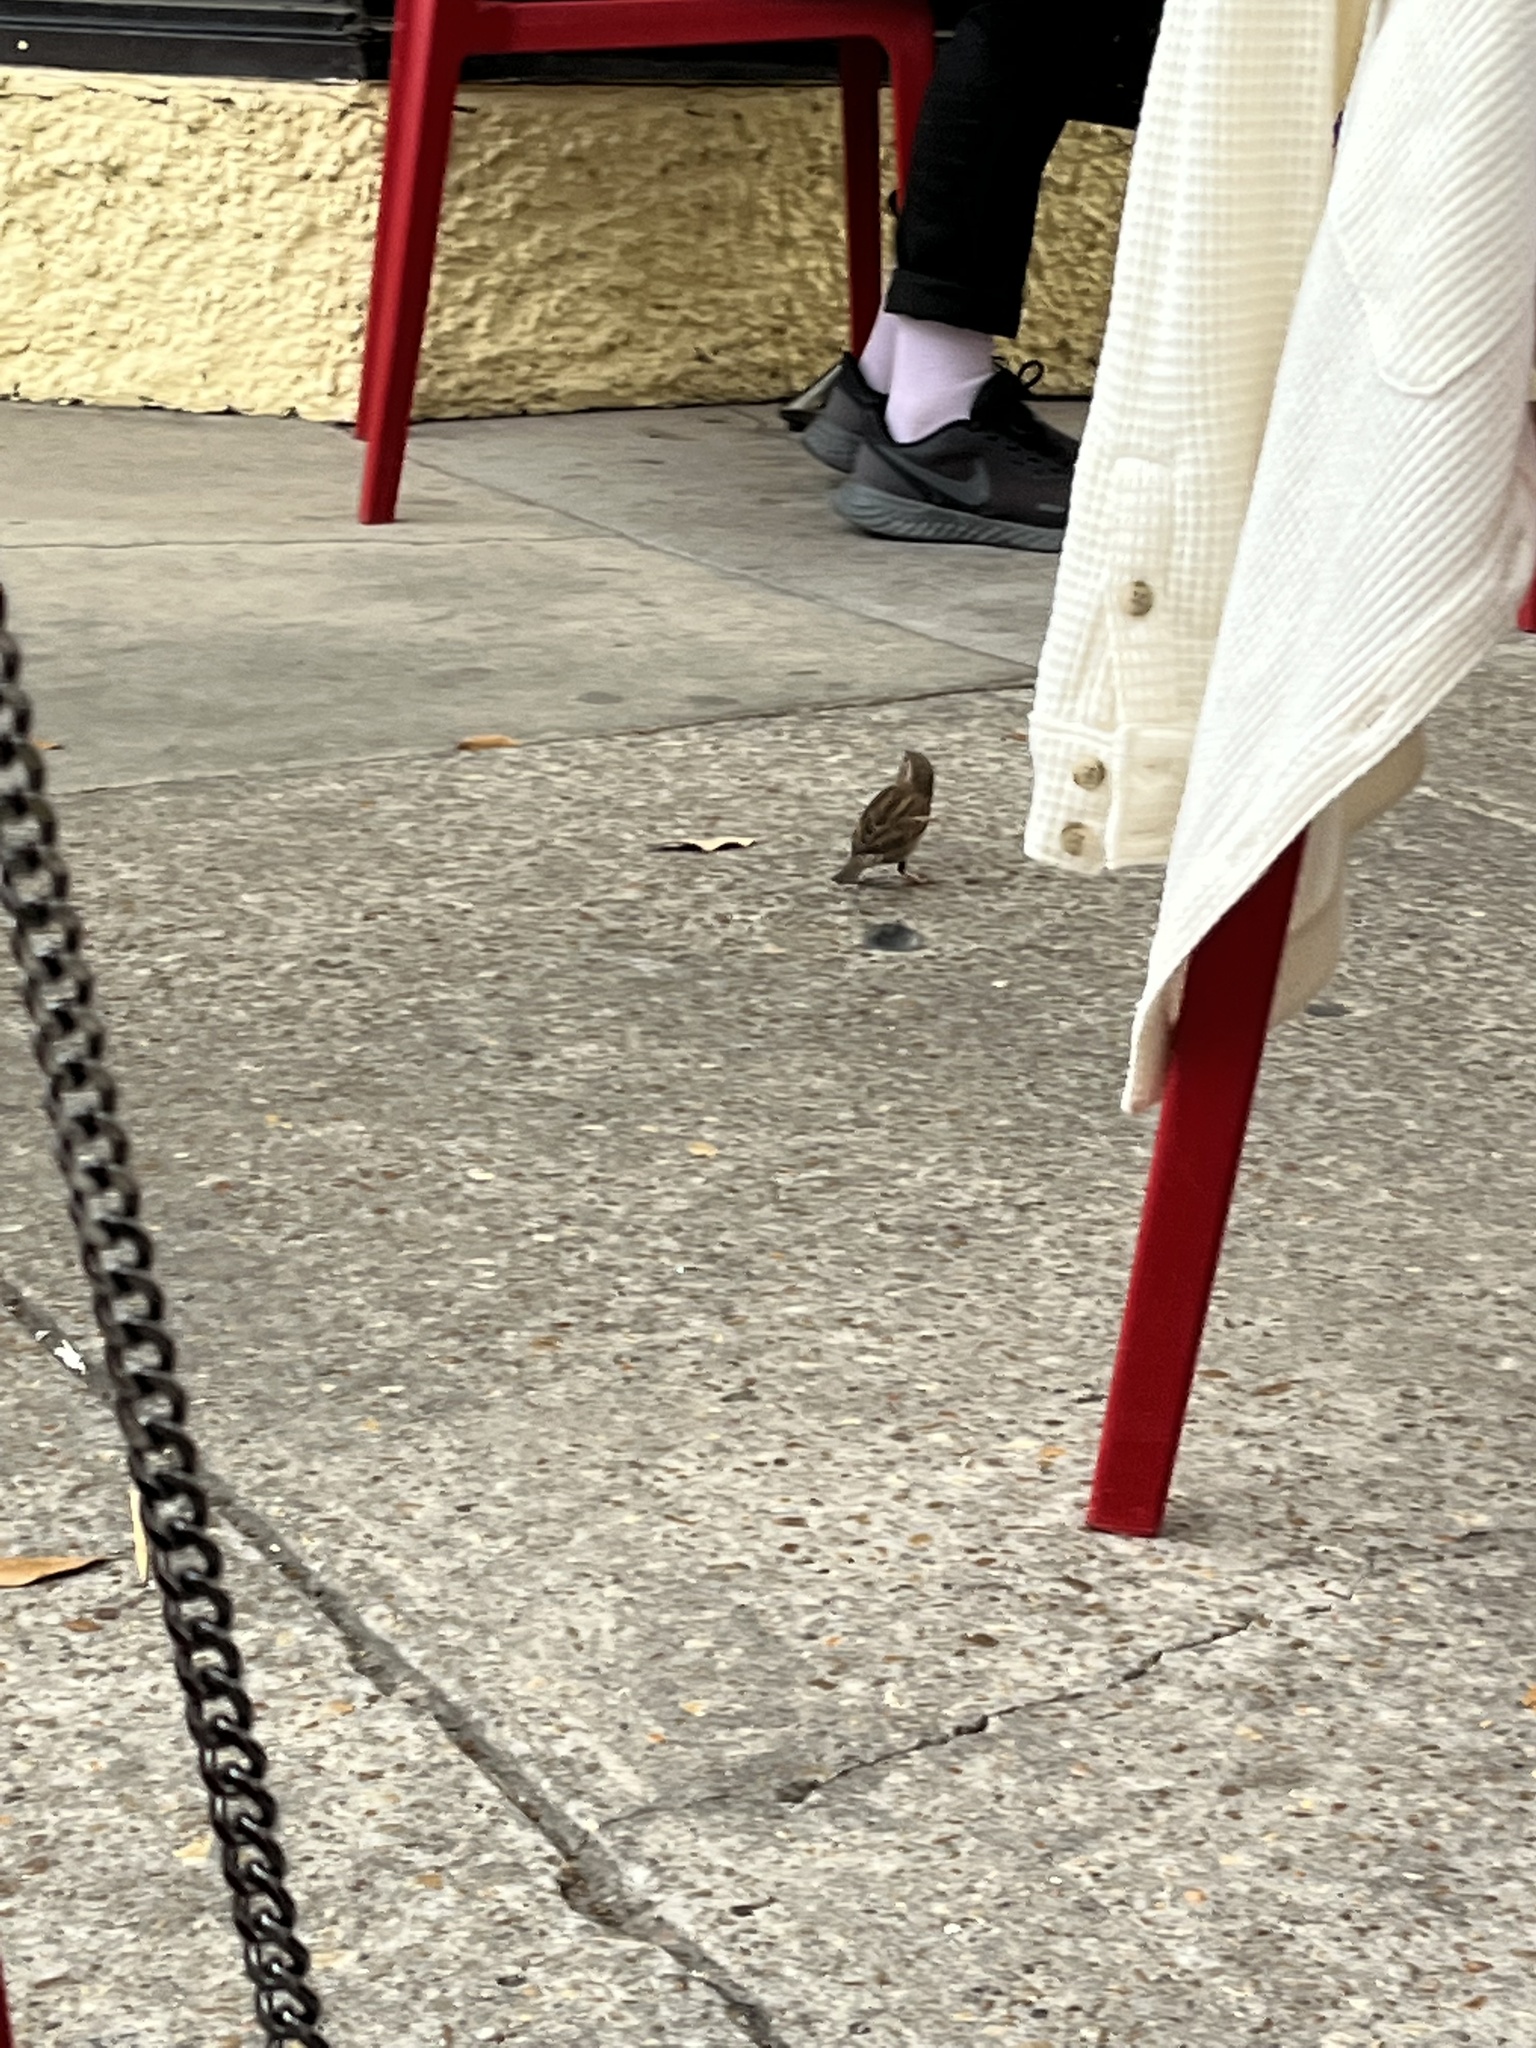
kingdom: Animalia
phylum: Chordata
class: Aves
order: Passeriformes
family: Passeridae
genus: Passer
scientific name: Passer domesticus
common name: House sparrow
